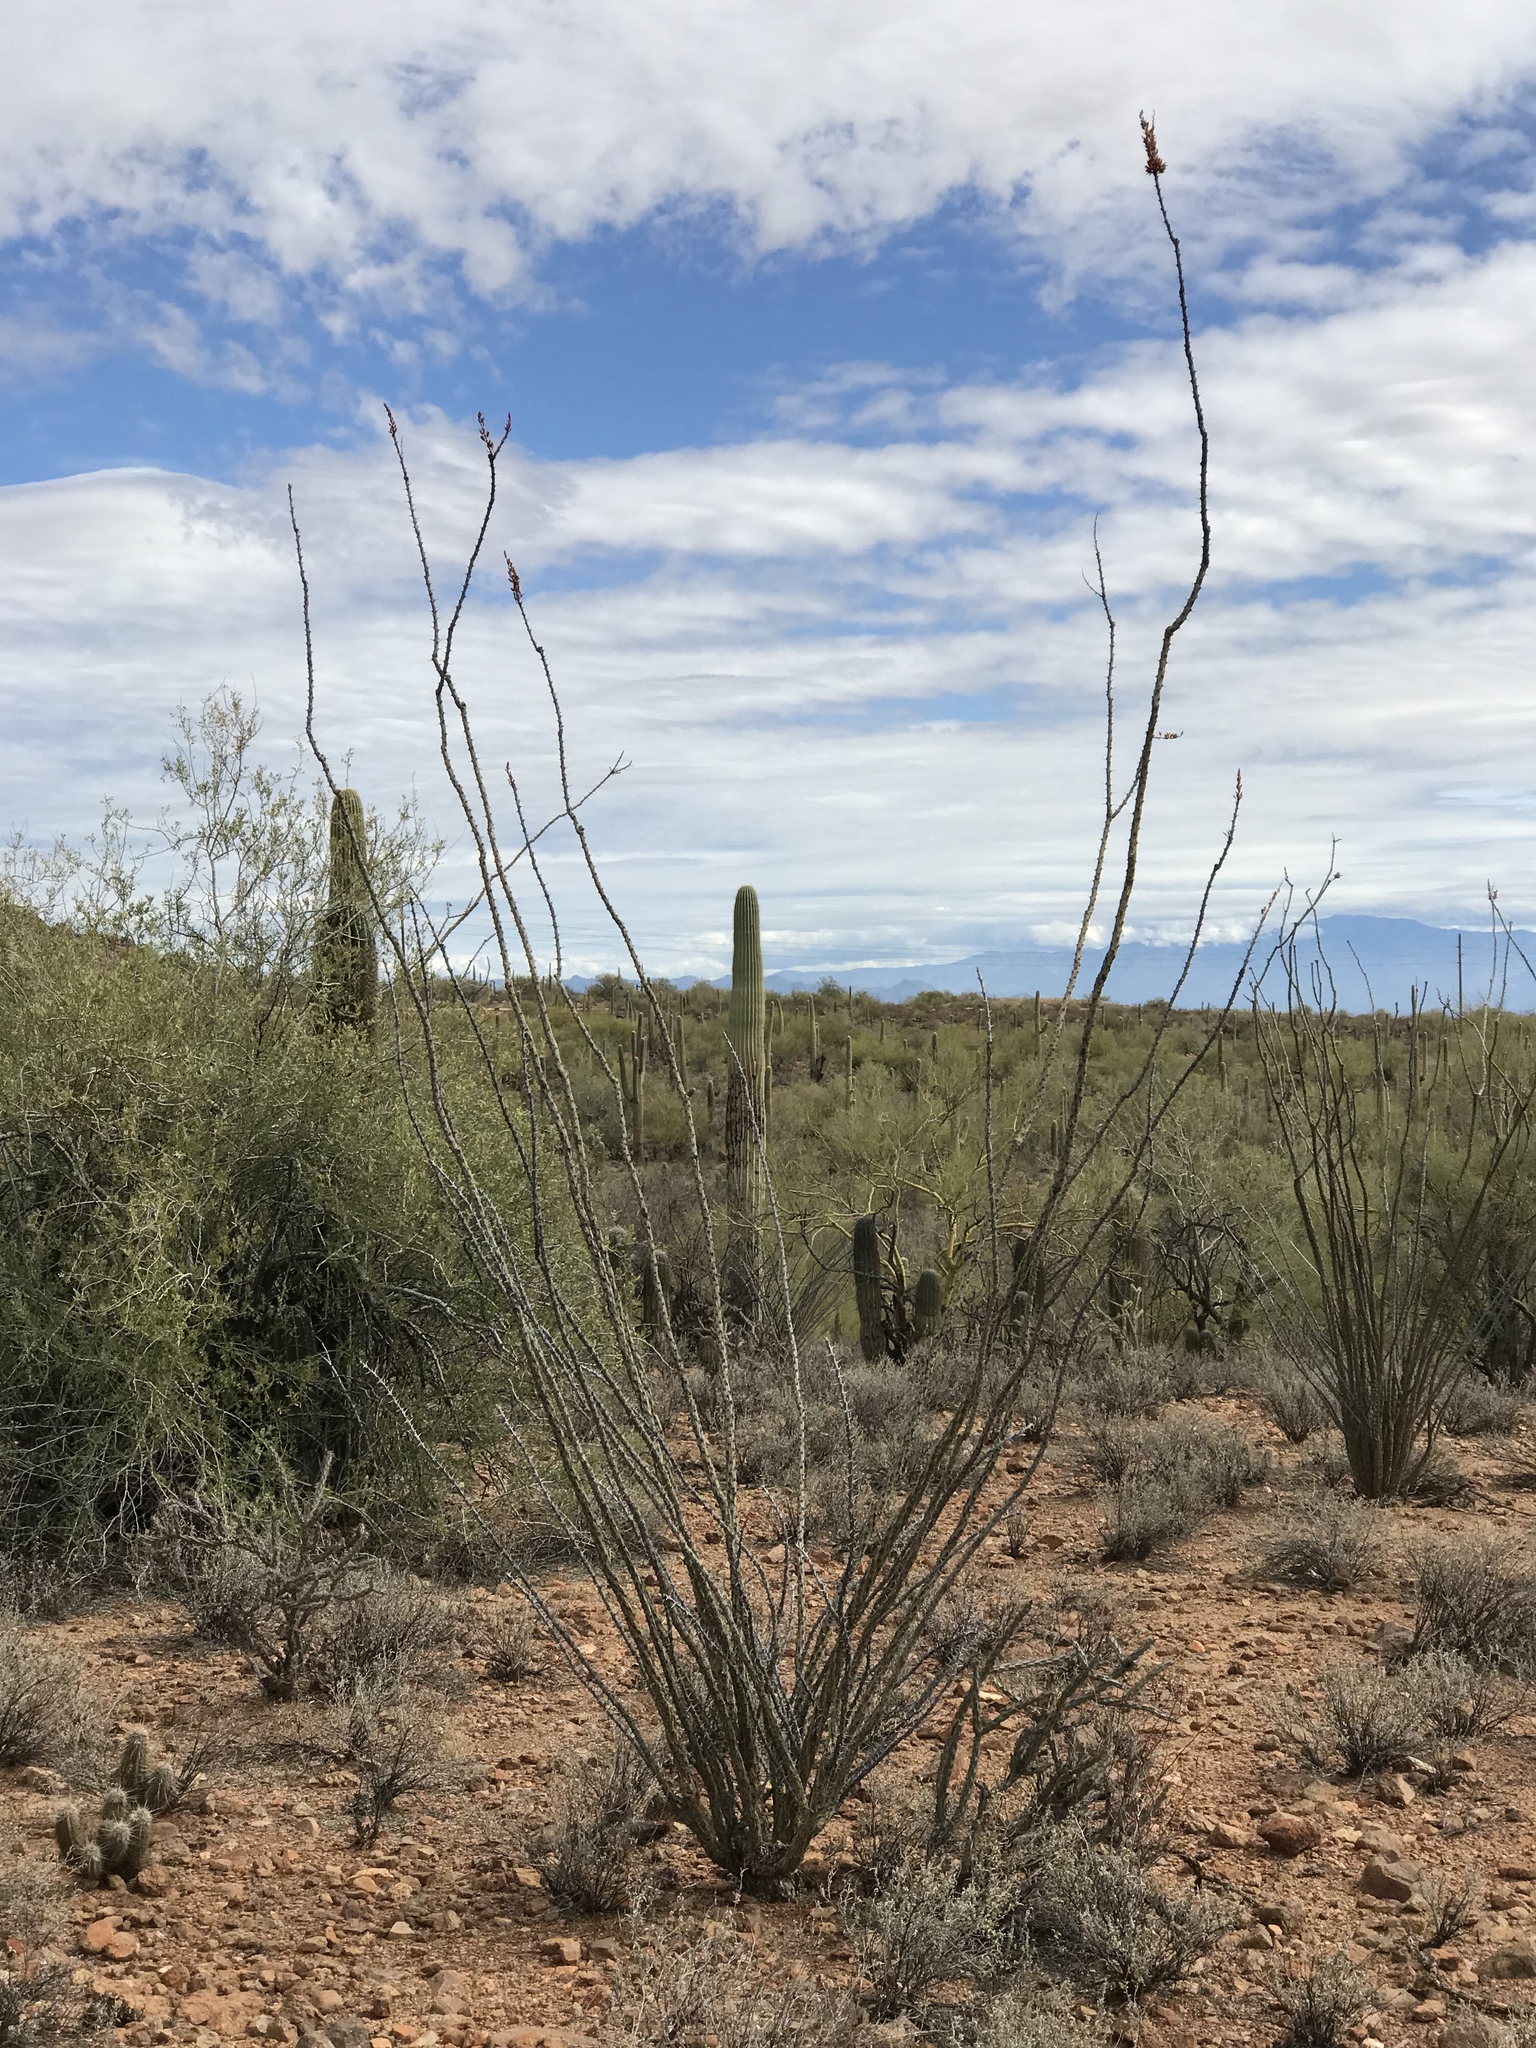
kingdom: Plantae
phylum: Tracheophyta
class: Magnoliopsida
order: Ericales
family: Fouquieriaceae
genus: Fouquieria
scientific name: Fouquieria splendens
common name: Vine-cactus
